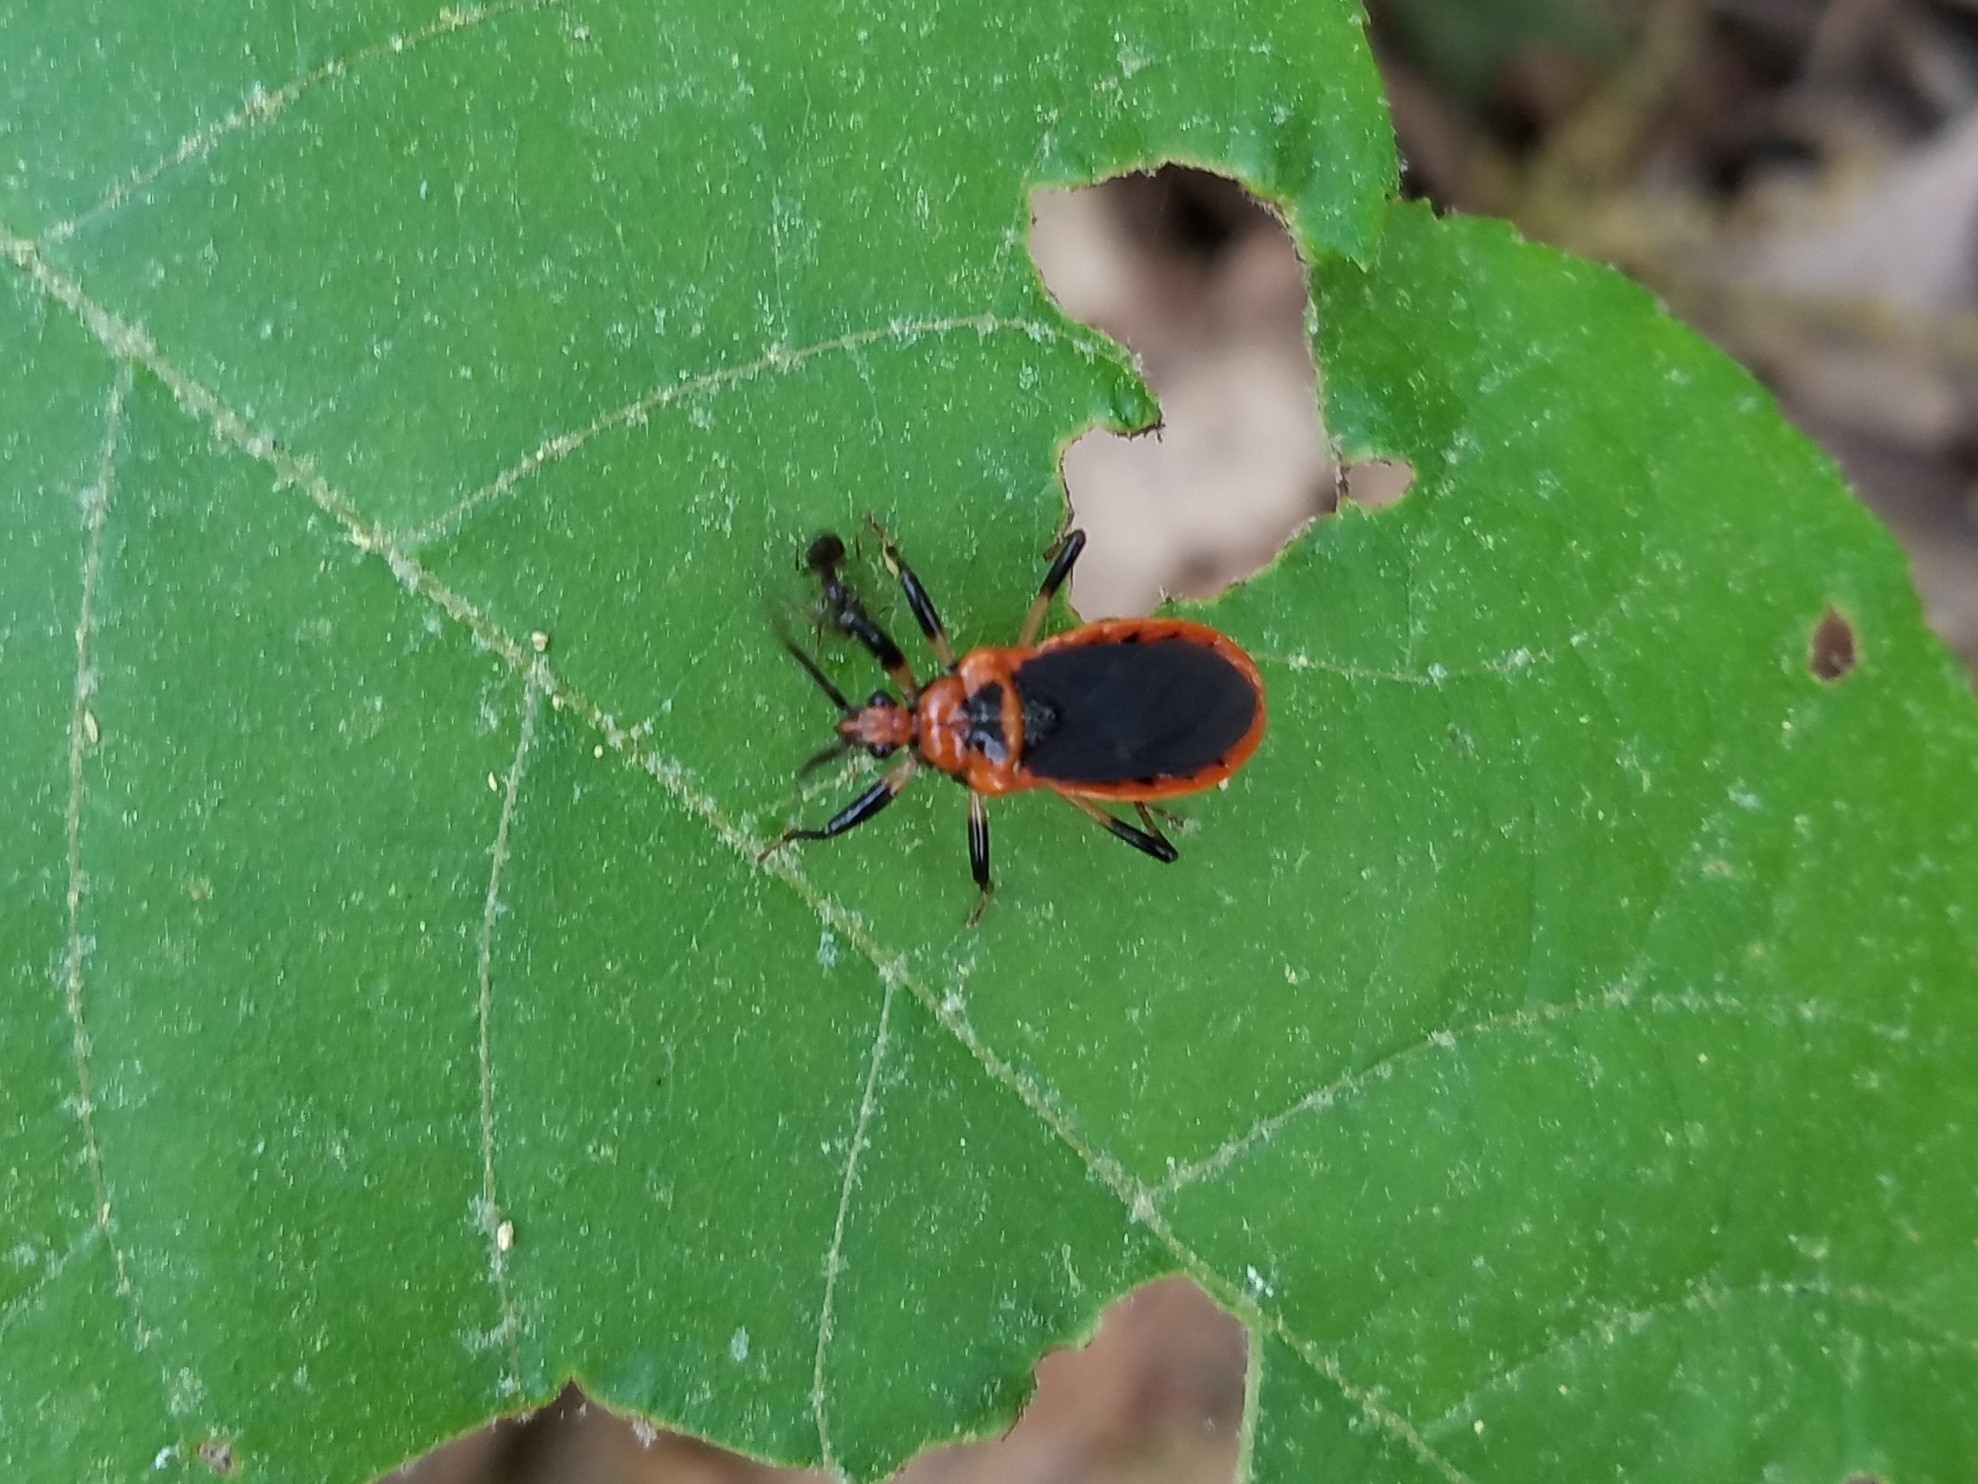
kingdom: Animalia
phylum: Arthropoda
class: Insecta
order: Hemiptera
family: Reduviidae
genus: Rhiginia
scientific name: Rhiginia cruciata
